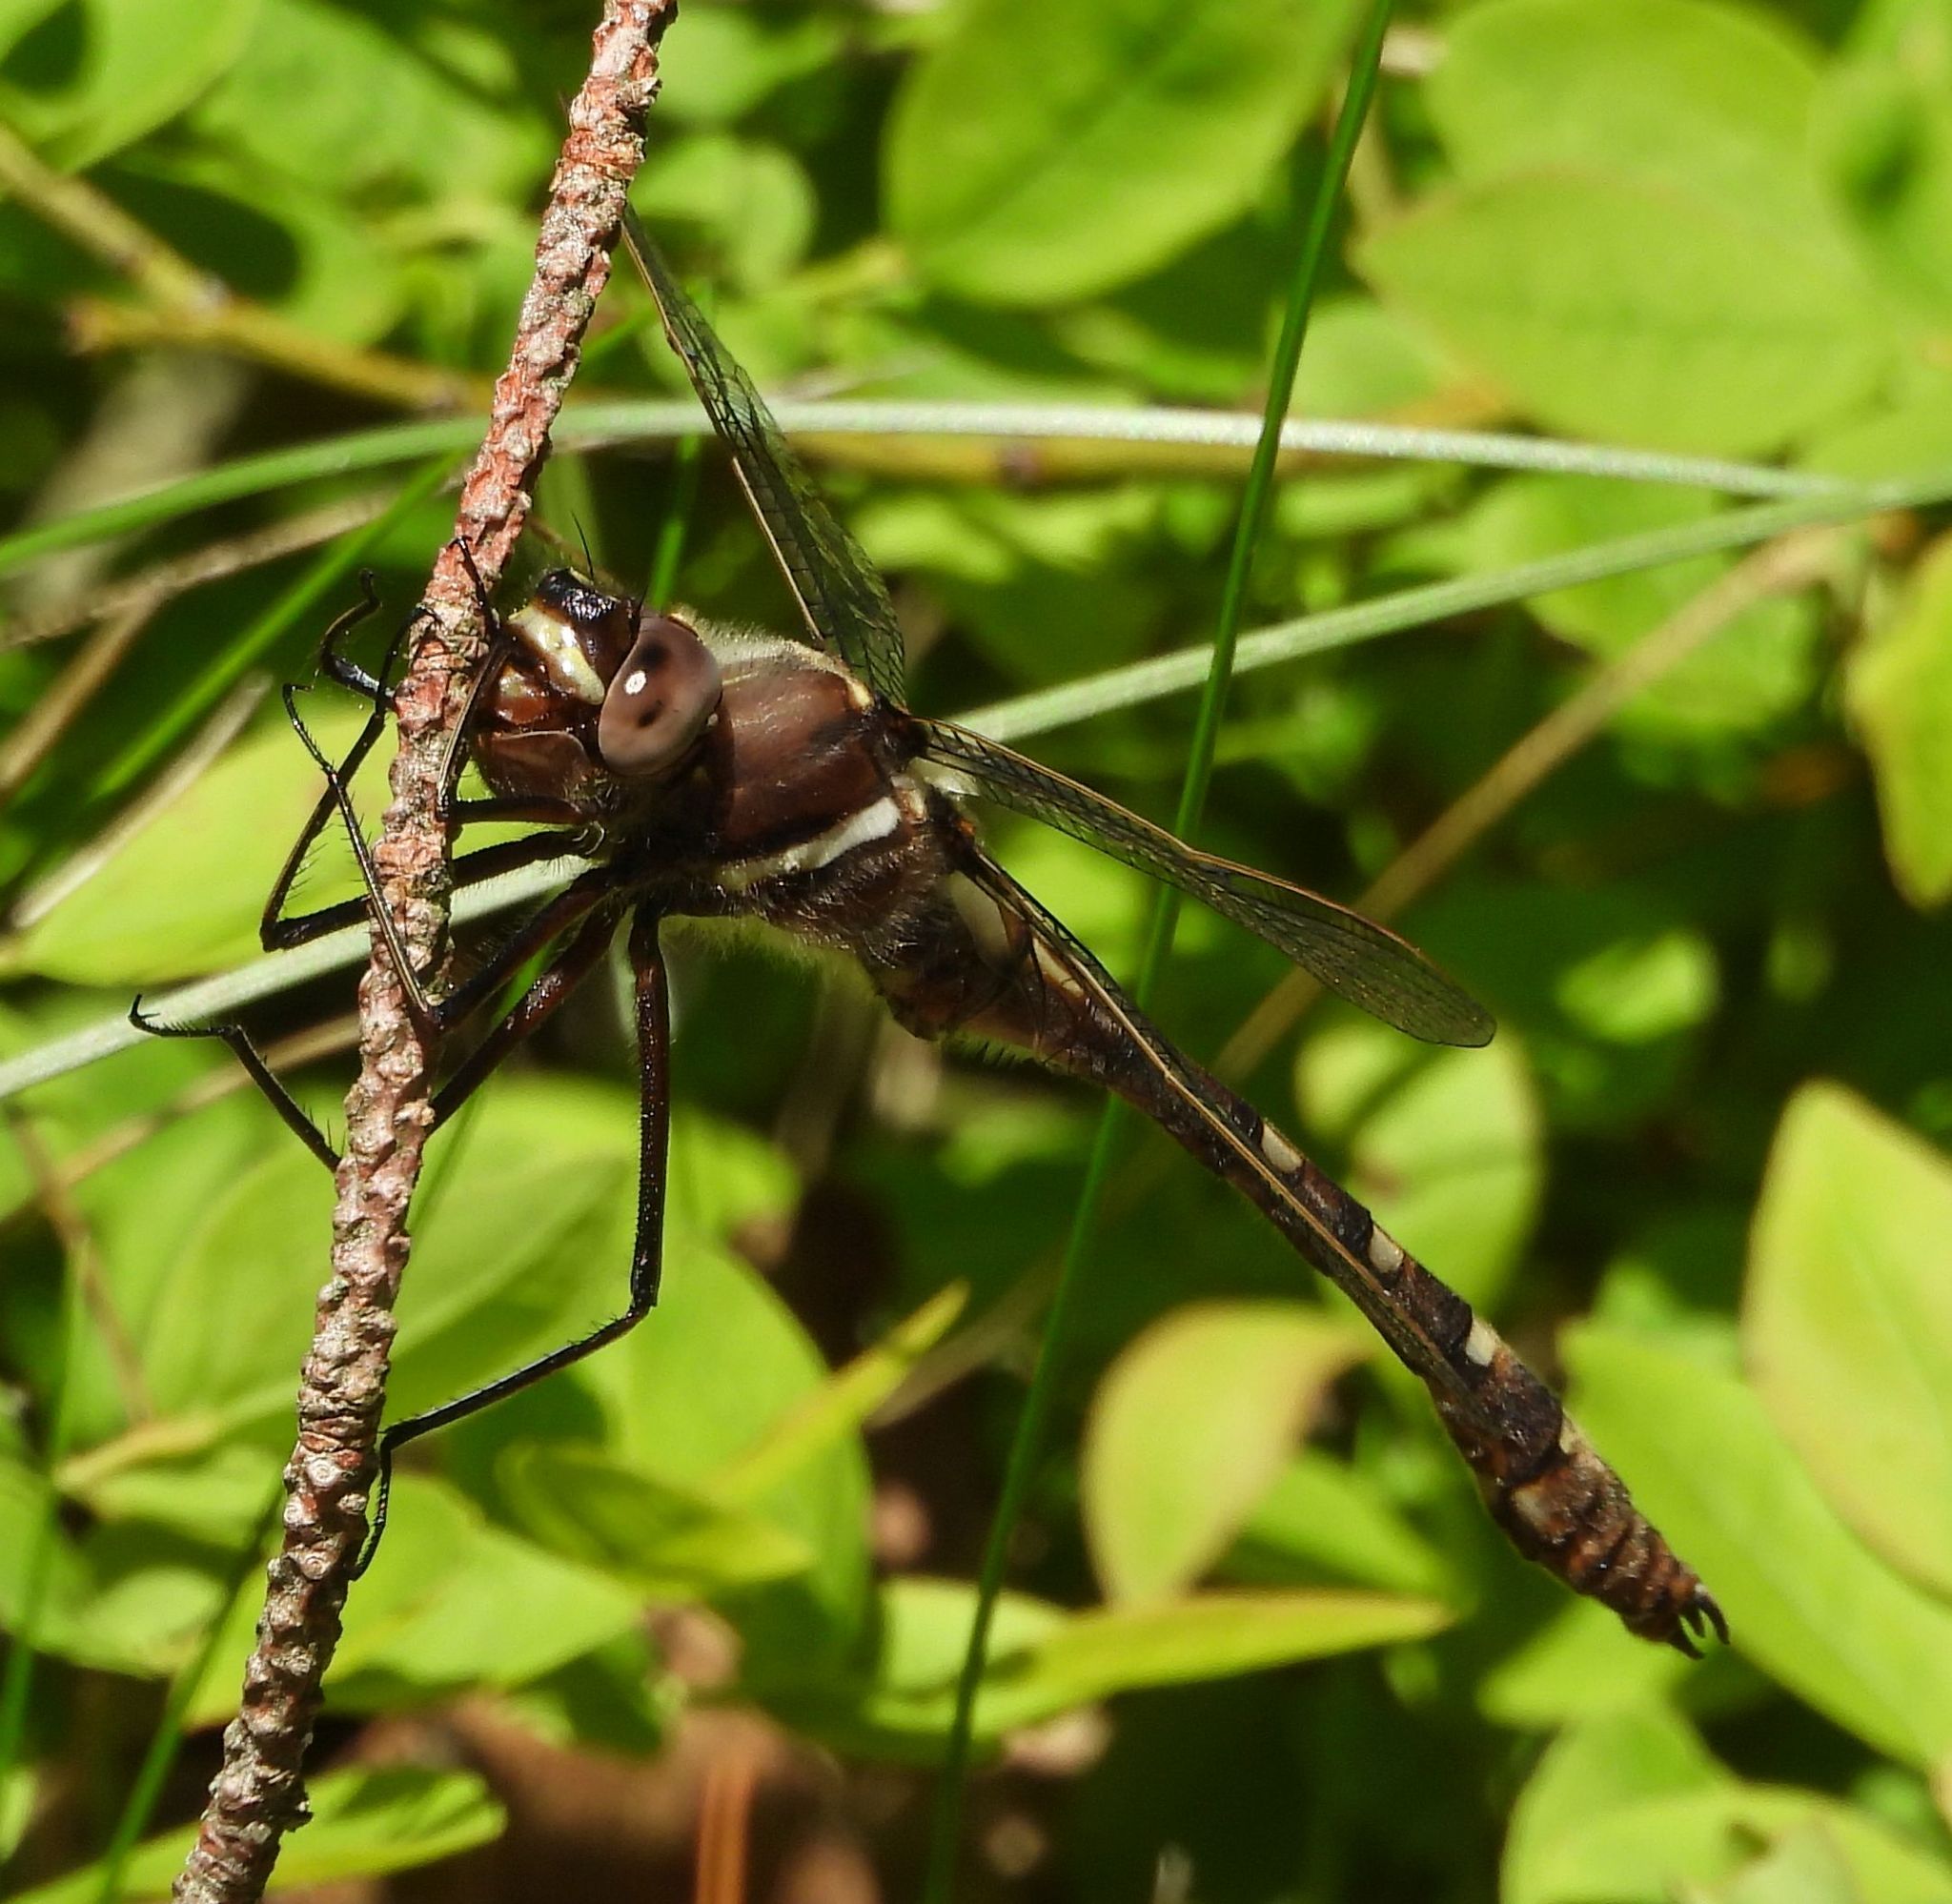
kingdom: Animalia
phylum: Arthropoda
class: Insecta
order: Odonata
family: Macromiidae
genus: Didymops
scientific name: Didymops transversa
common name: Stream cruiser
